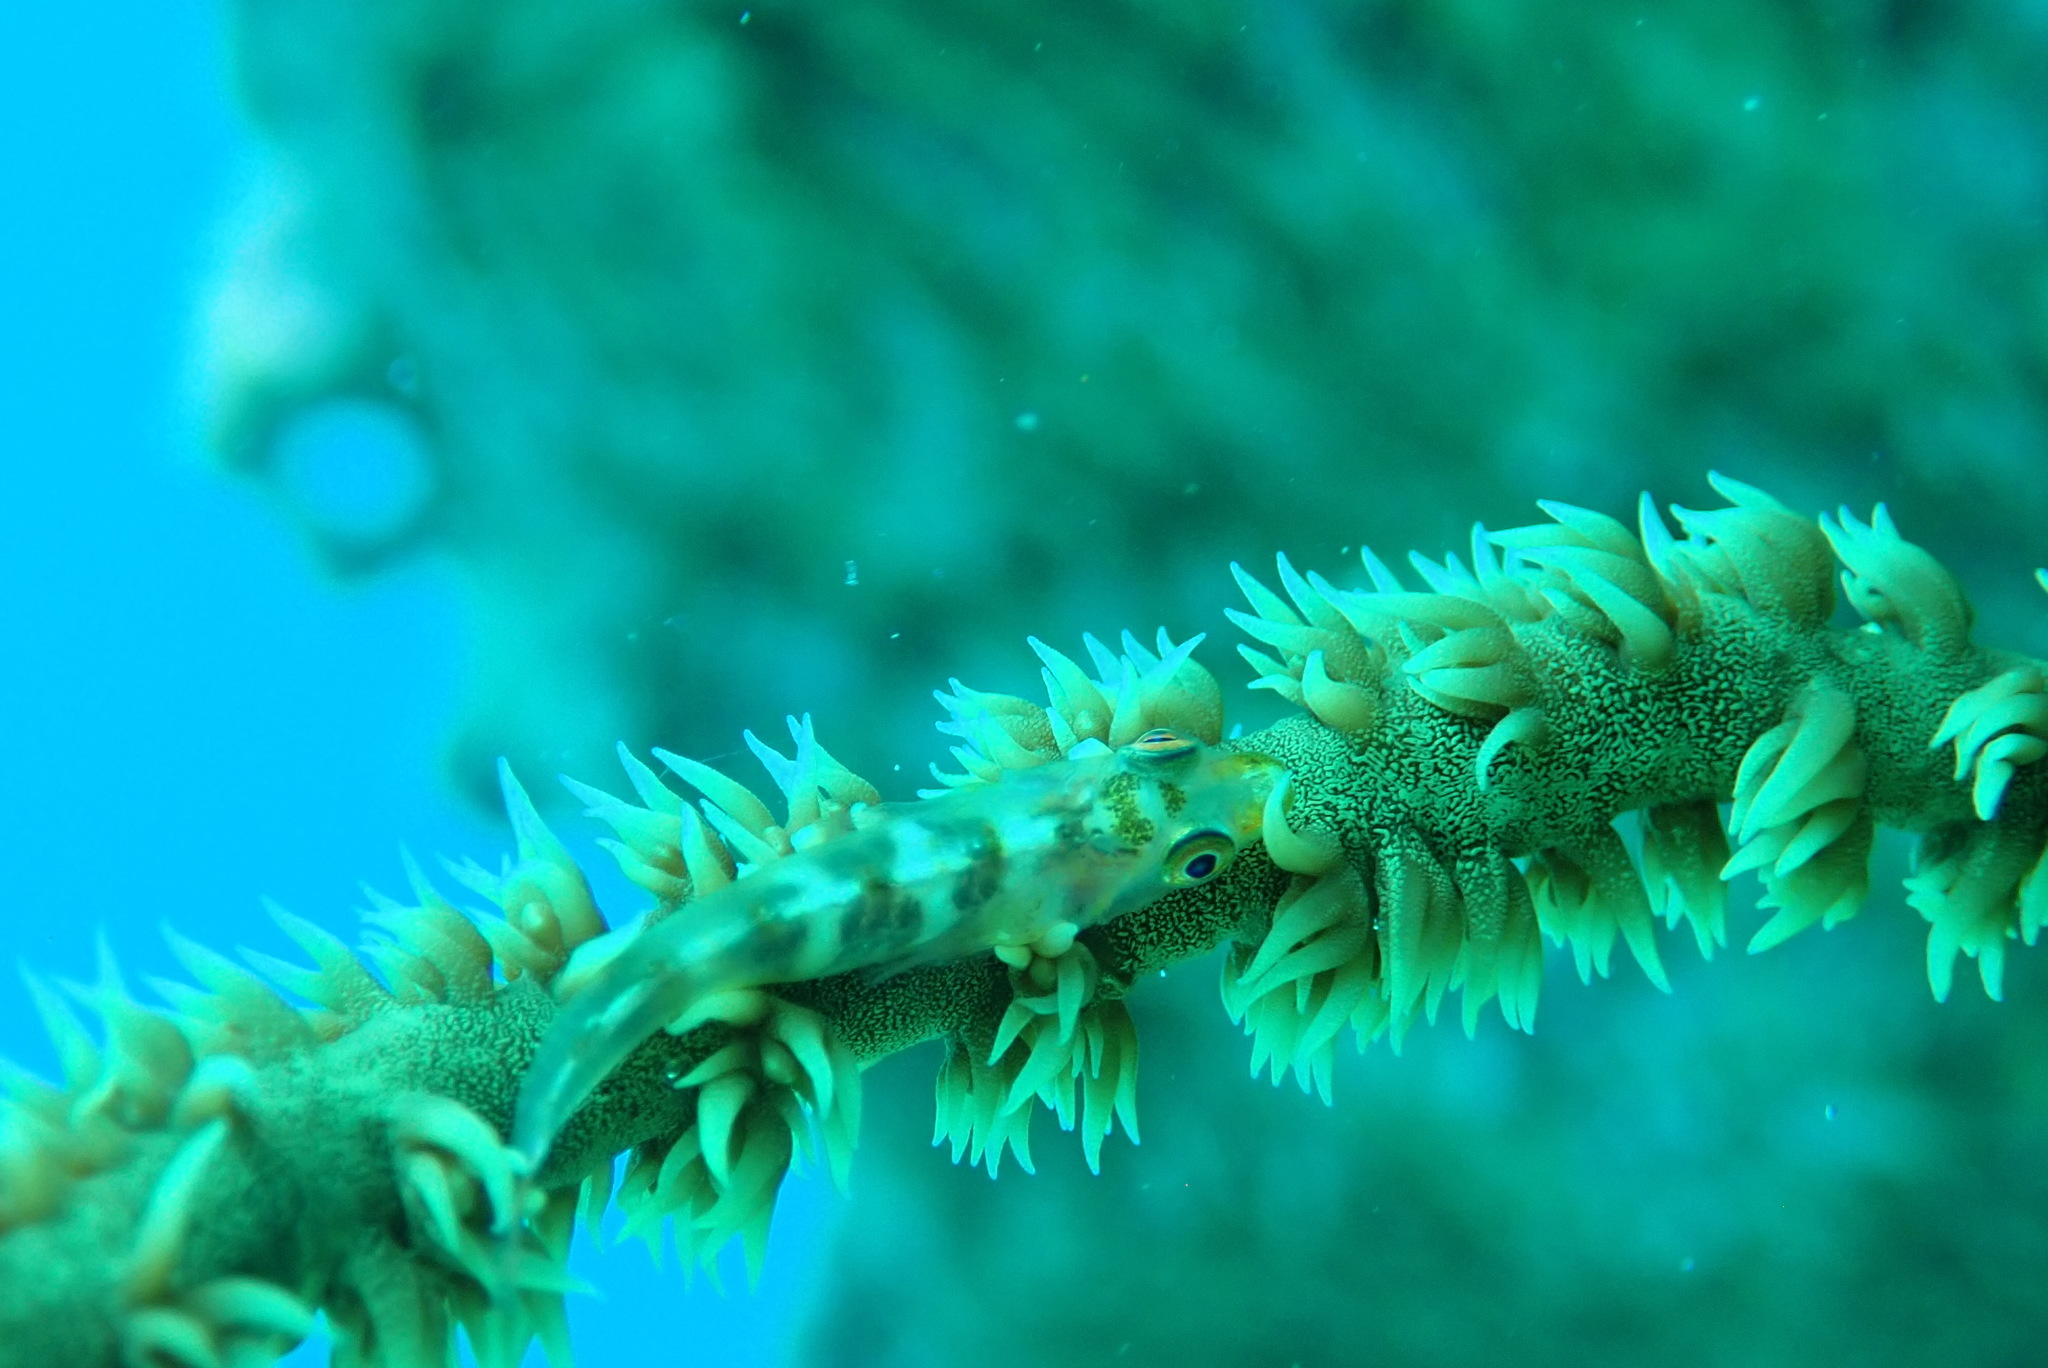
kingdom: Animalia
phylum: Chordata
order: Perciformes
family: Gobiidae
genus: Bryaninops
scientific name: Bryaninops yongei
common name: Whip coral goby
